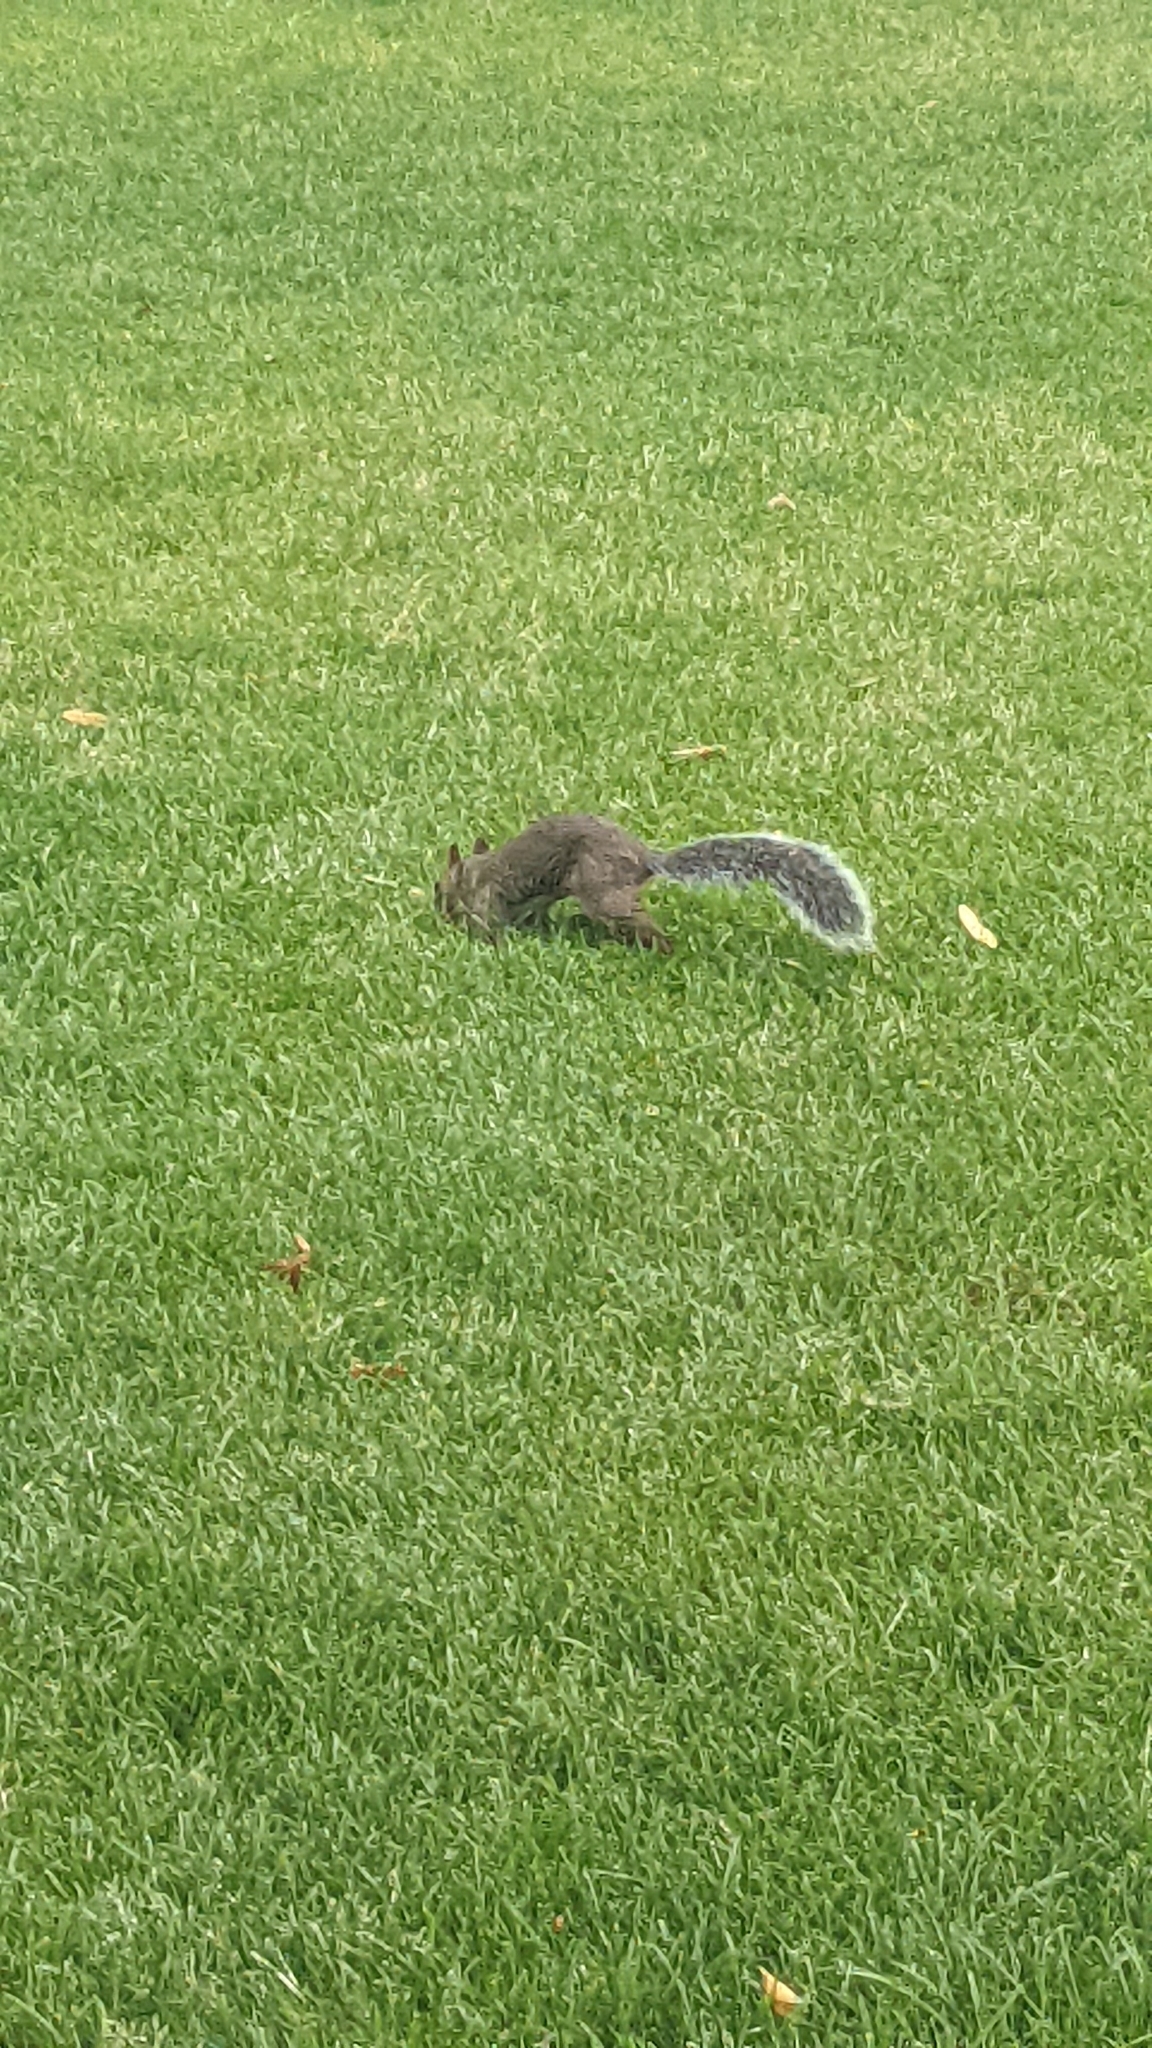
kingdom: Animalia
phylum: Chordata
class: Mammalia
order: Rodentia
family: Sciuridae
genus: Sciurus
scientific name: Sciurus carolinensis
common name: Eastern gray squirrel
